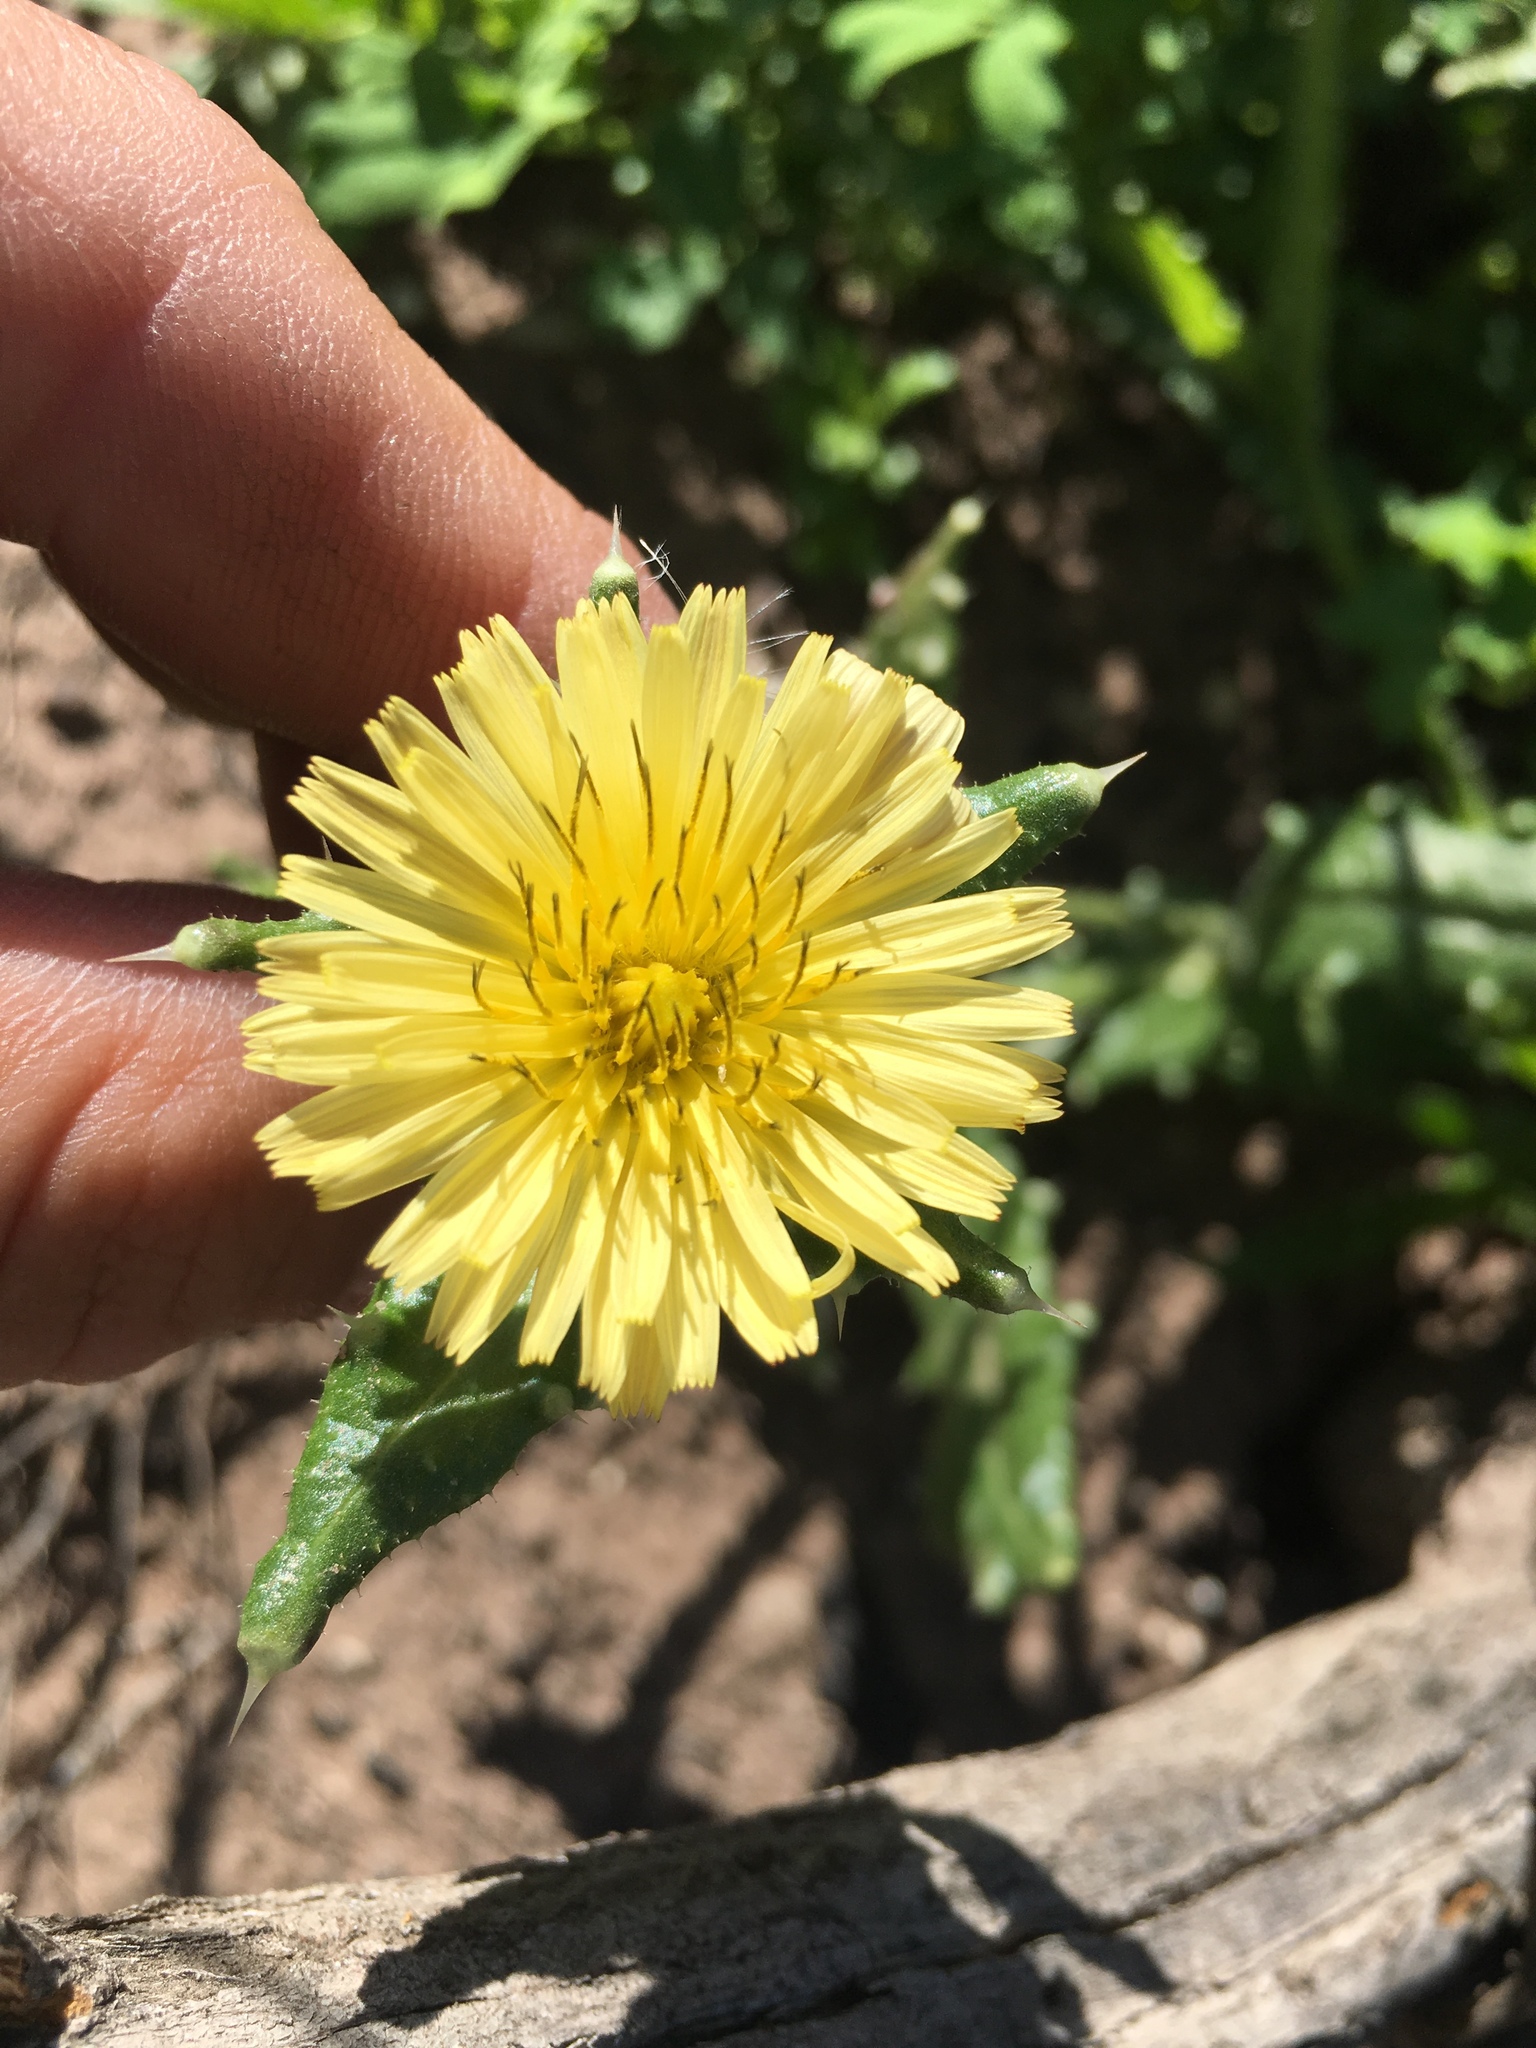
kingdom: Plantae
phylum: Tracheophyta
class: Magnoliopsida
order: Asterales
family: Asteraceae
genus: Helminthotheca
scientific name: Helminthotheca echioides
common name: Ox-tongue
